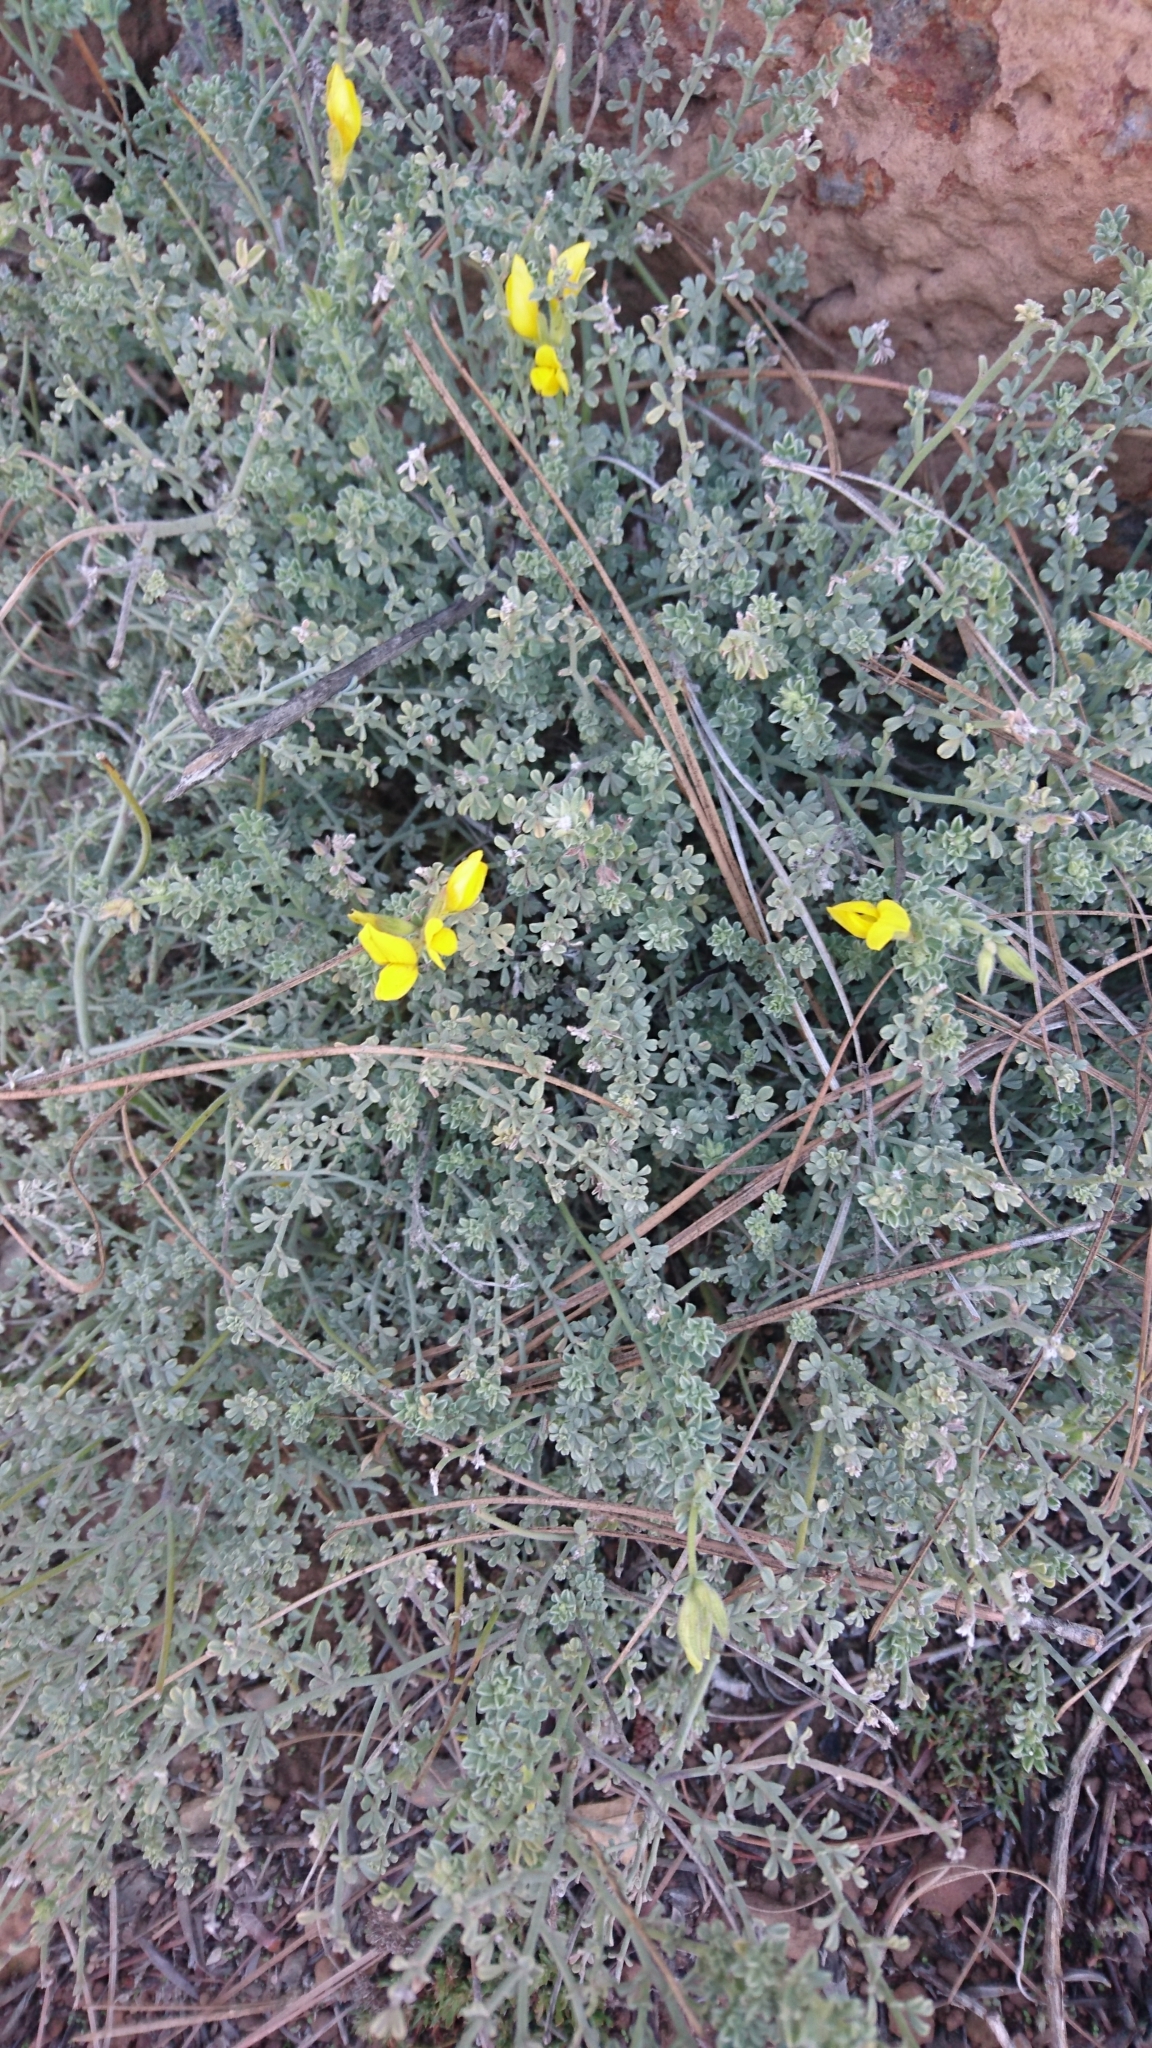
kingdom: Plantae
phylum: Tracheophyta
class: Magnoliopsida
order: Fabales
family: Fabaceae
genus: Lotus
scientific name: Lotus sessilifolius
